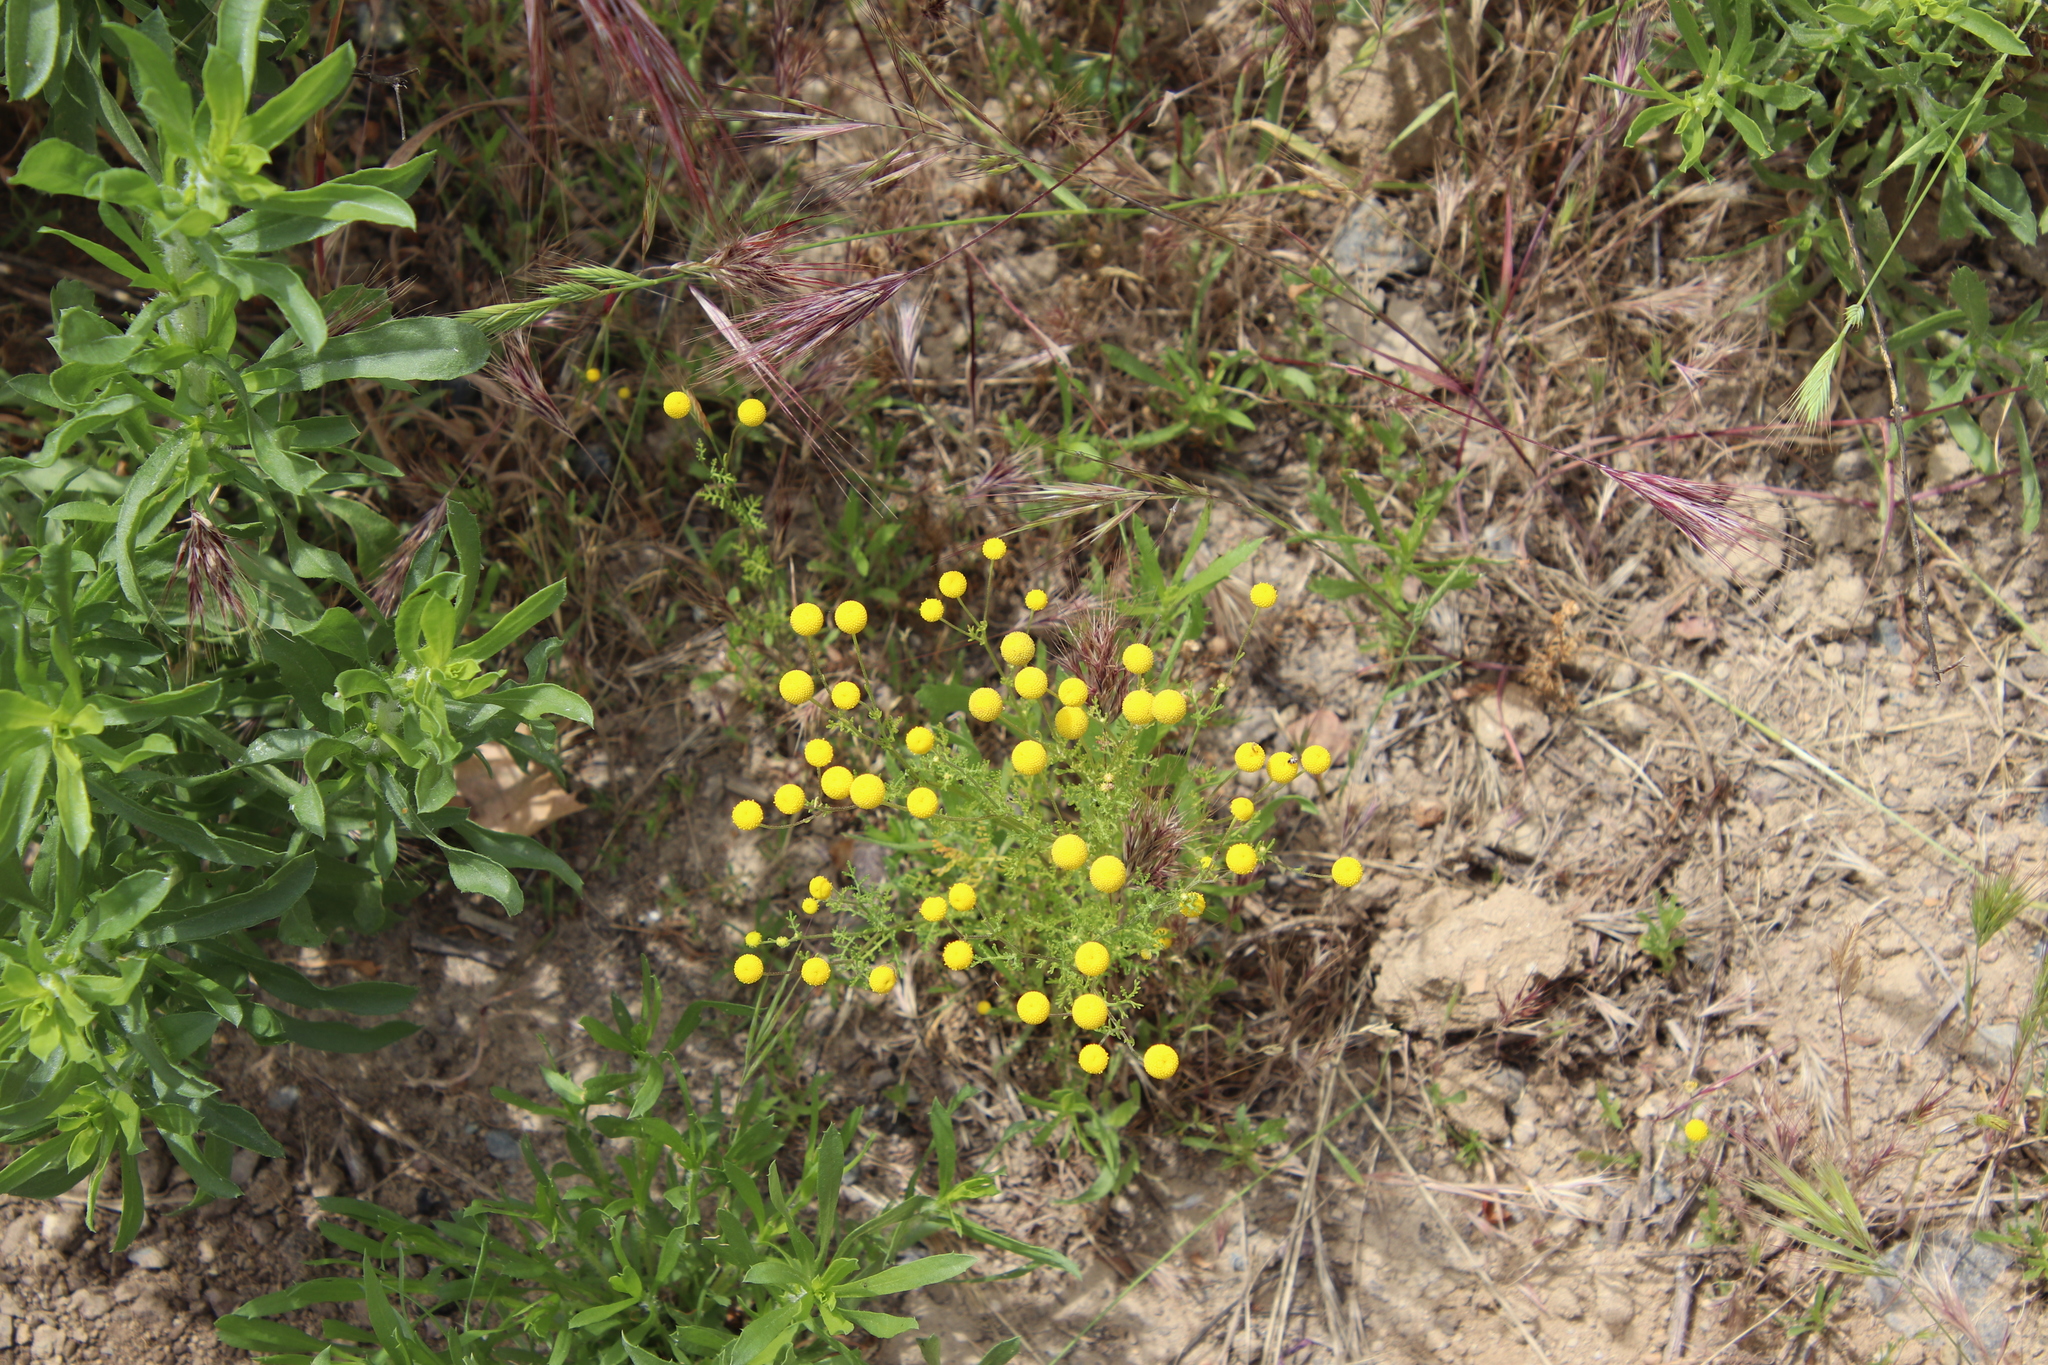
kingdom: Plantae
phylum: Tracheophyta
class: Magnoliopsida
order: Asterales
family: Asteraceae
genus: Oncosiphon
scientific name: Oncosiphon pilulifer
